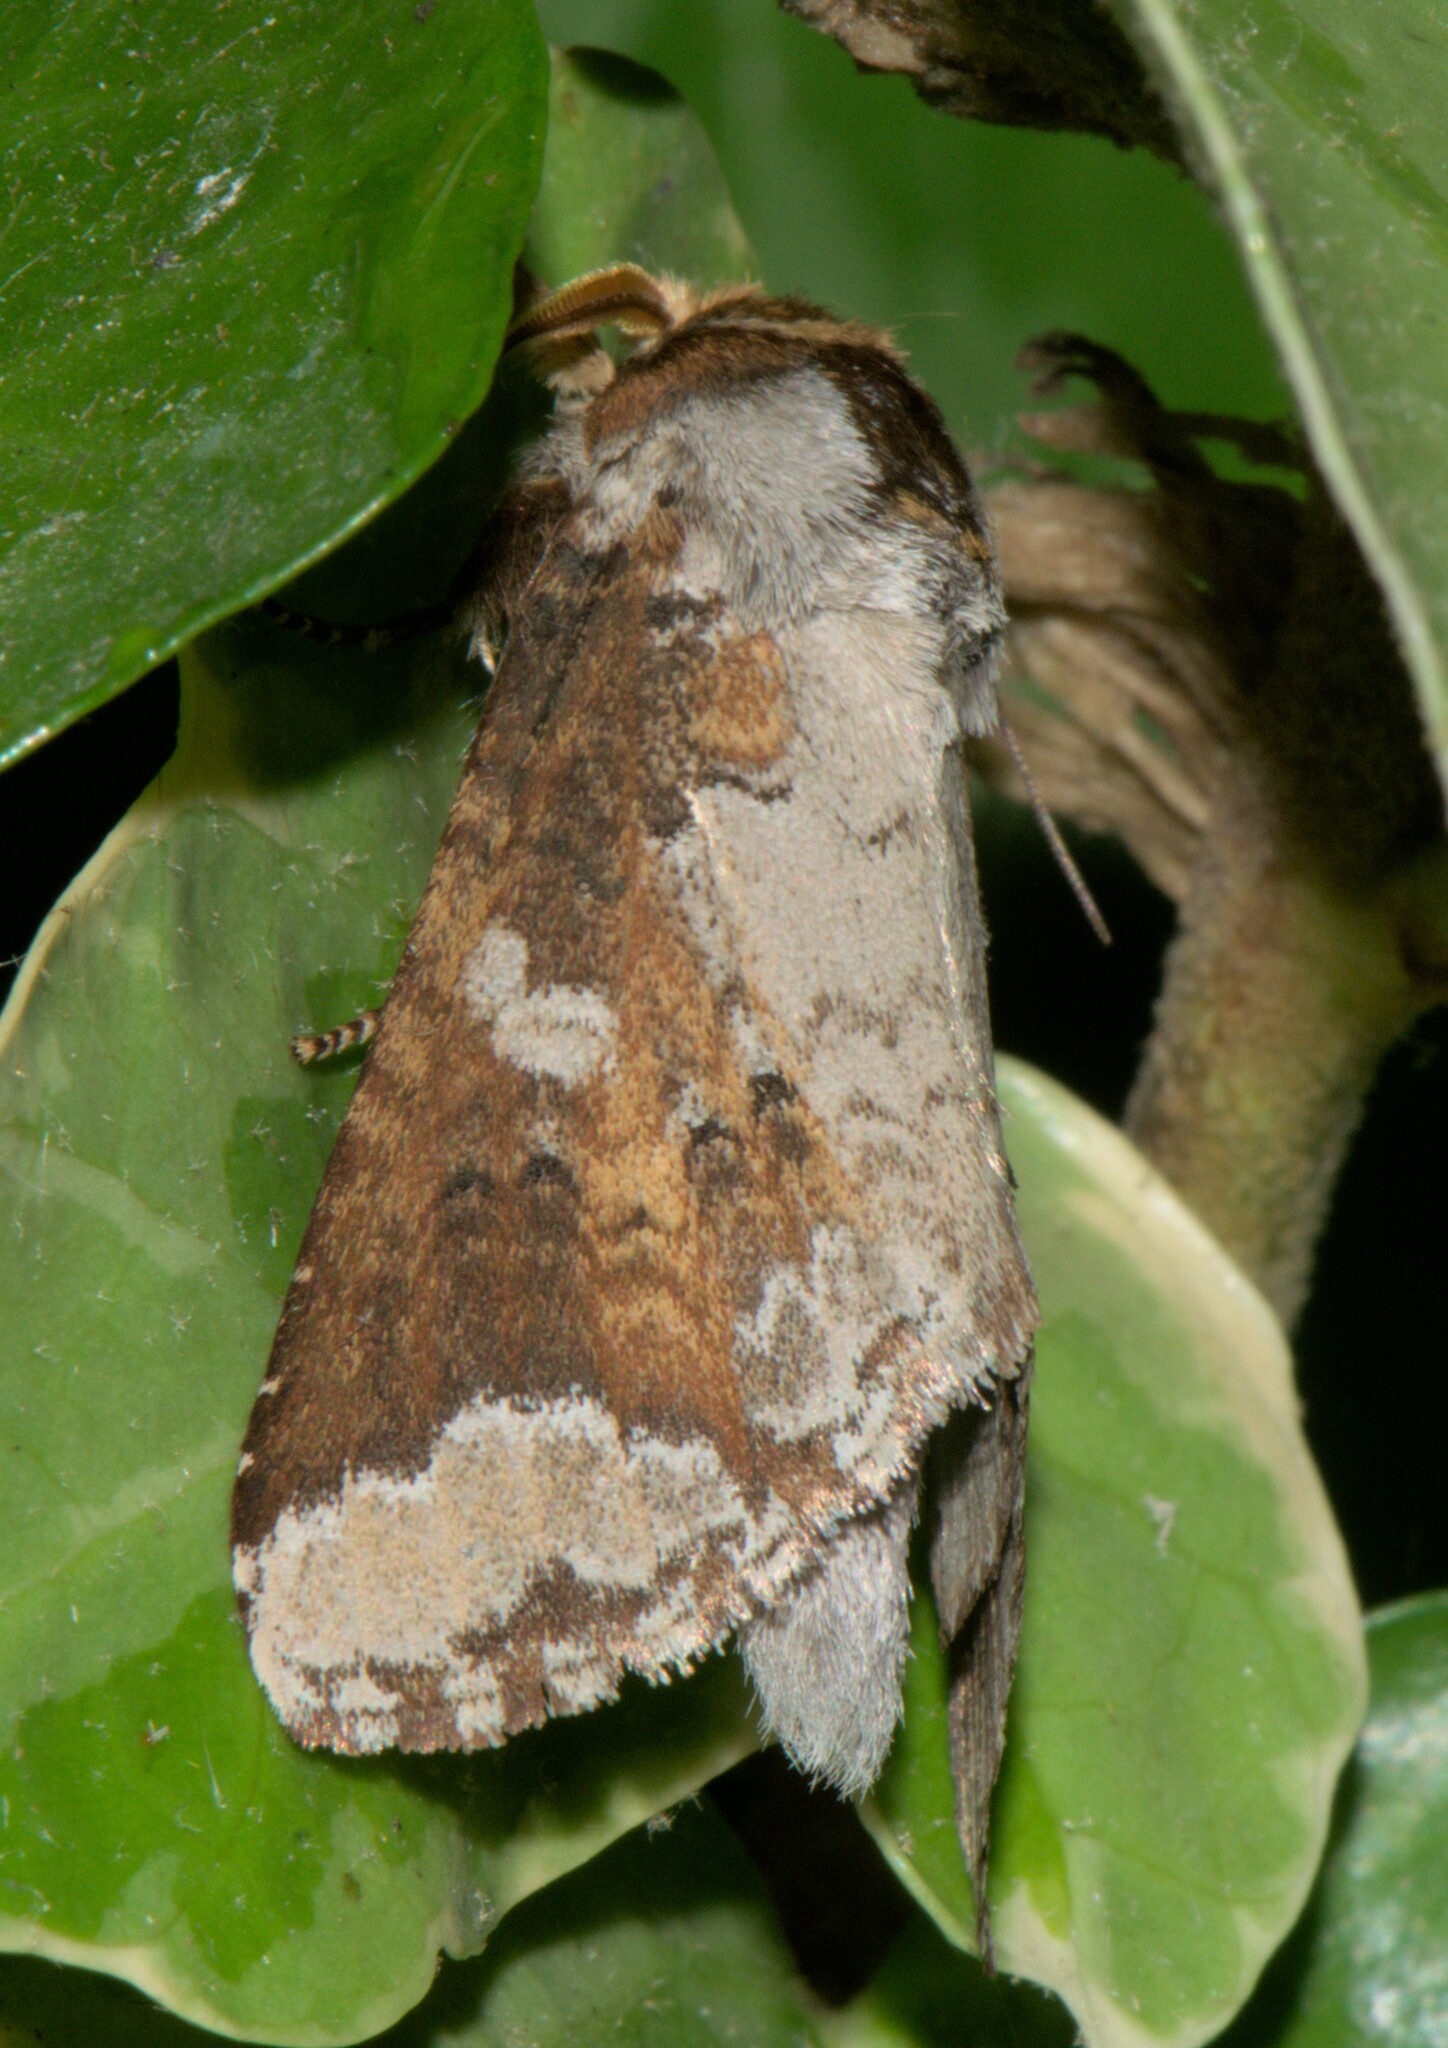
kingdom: Animalia
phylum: Arthropoda
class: Insecta
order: Lepidoptera
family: Notodontidae
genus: Neodrymonia
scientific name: Neodrymonia canifusa
